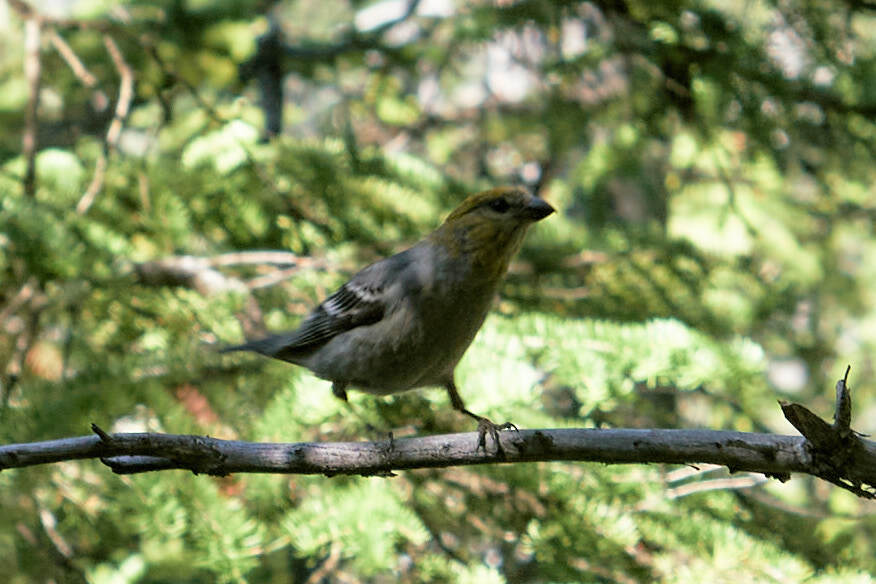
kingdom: Animalia
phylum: Chordata
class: Aves
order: Passeriformes
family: Fringillidae
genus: Pinicola
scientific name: Pinicola enucleator
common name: Pine grosbeak
